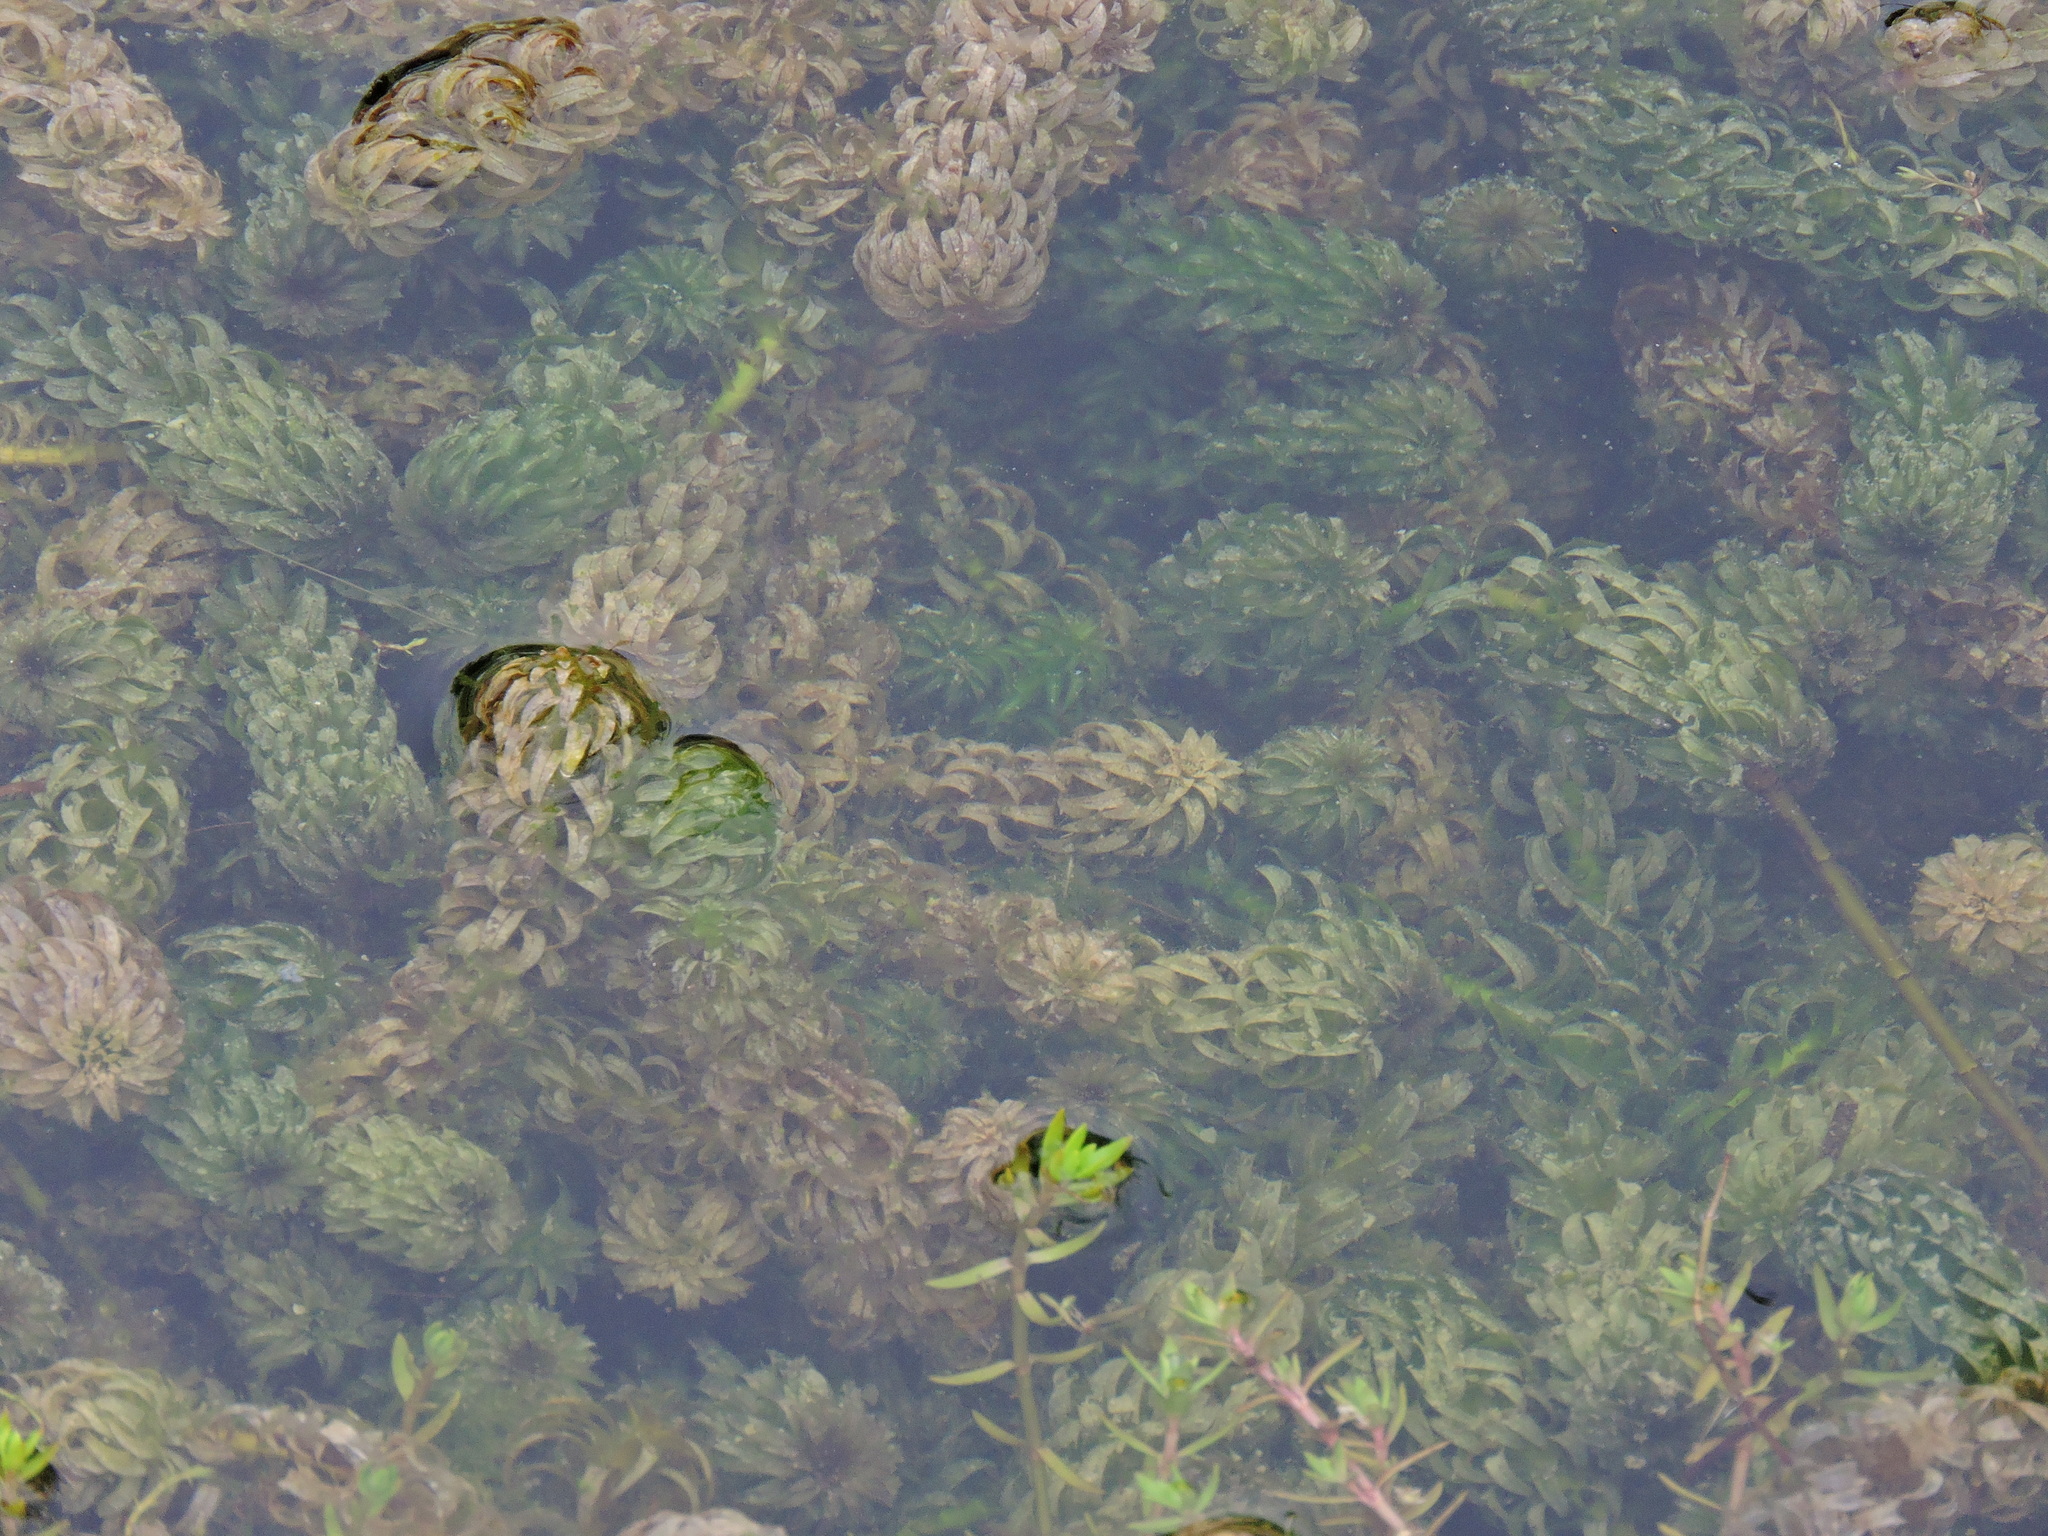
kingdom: Plantae
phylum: Tracheophyta
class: Liliopsida
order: Alismatales
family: Hydrocharitaceae
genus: Lagarosiphon
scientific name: Lagarosiphon major
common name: Curly waterweed
